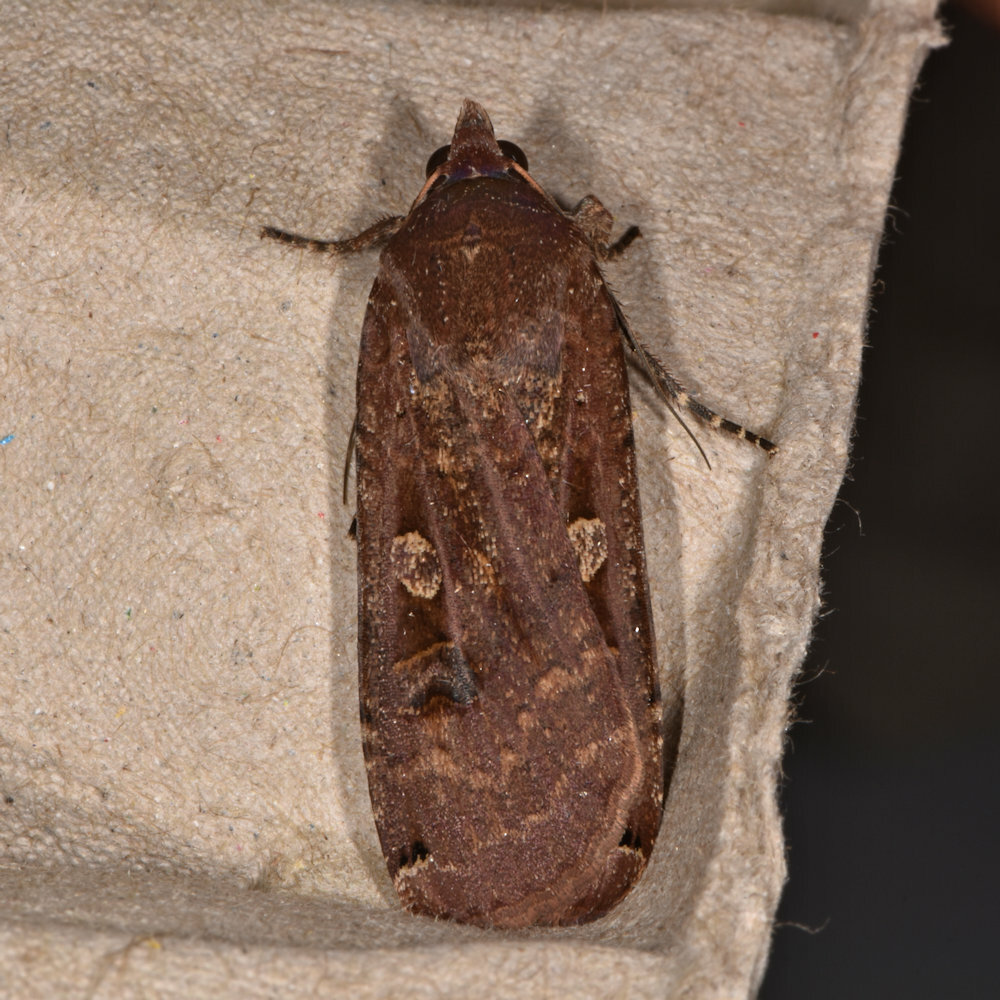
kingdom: Animalia
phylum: Arthropoda
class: Insecta
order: Lepidoptera
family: Noctuidae
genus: Noctua
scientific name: Noctua pronuba
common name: Large yellow underwing
